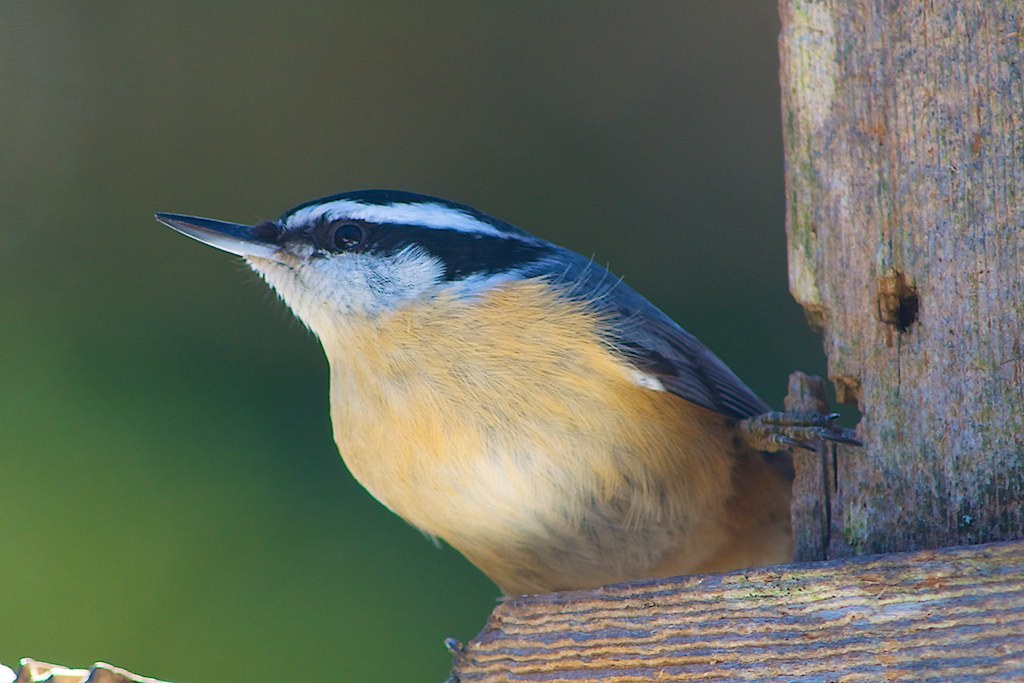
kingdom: Animalia
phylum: Chordata
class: Aves
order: Passeriformes
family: Sittidae
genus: Sitta
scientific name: Sitta canadensis
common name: Red-breasted nuthatch
